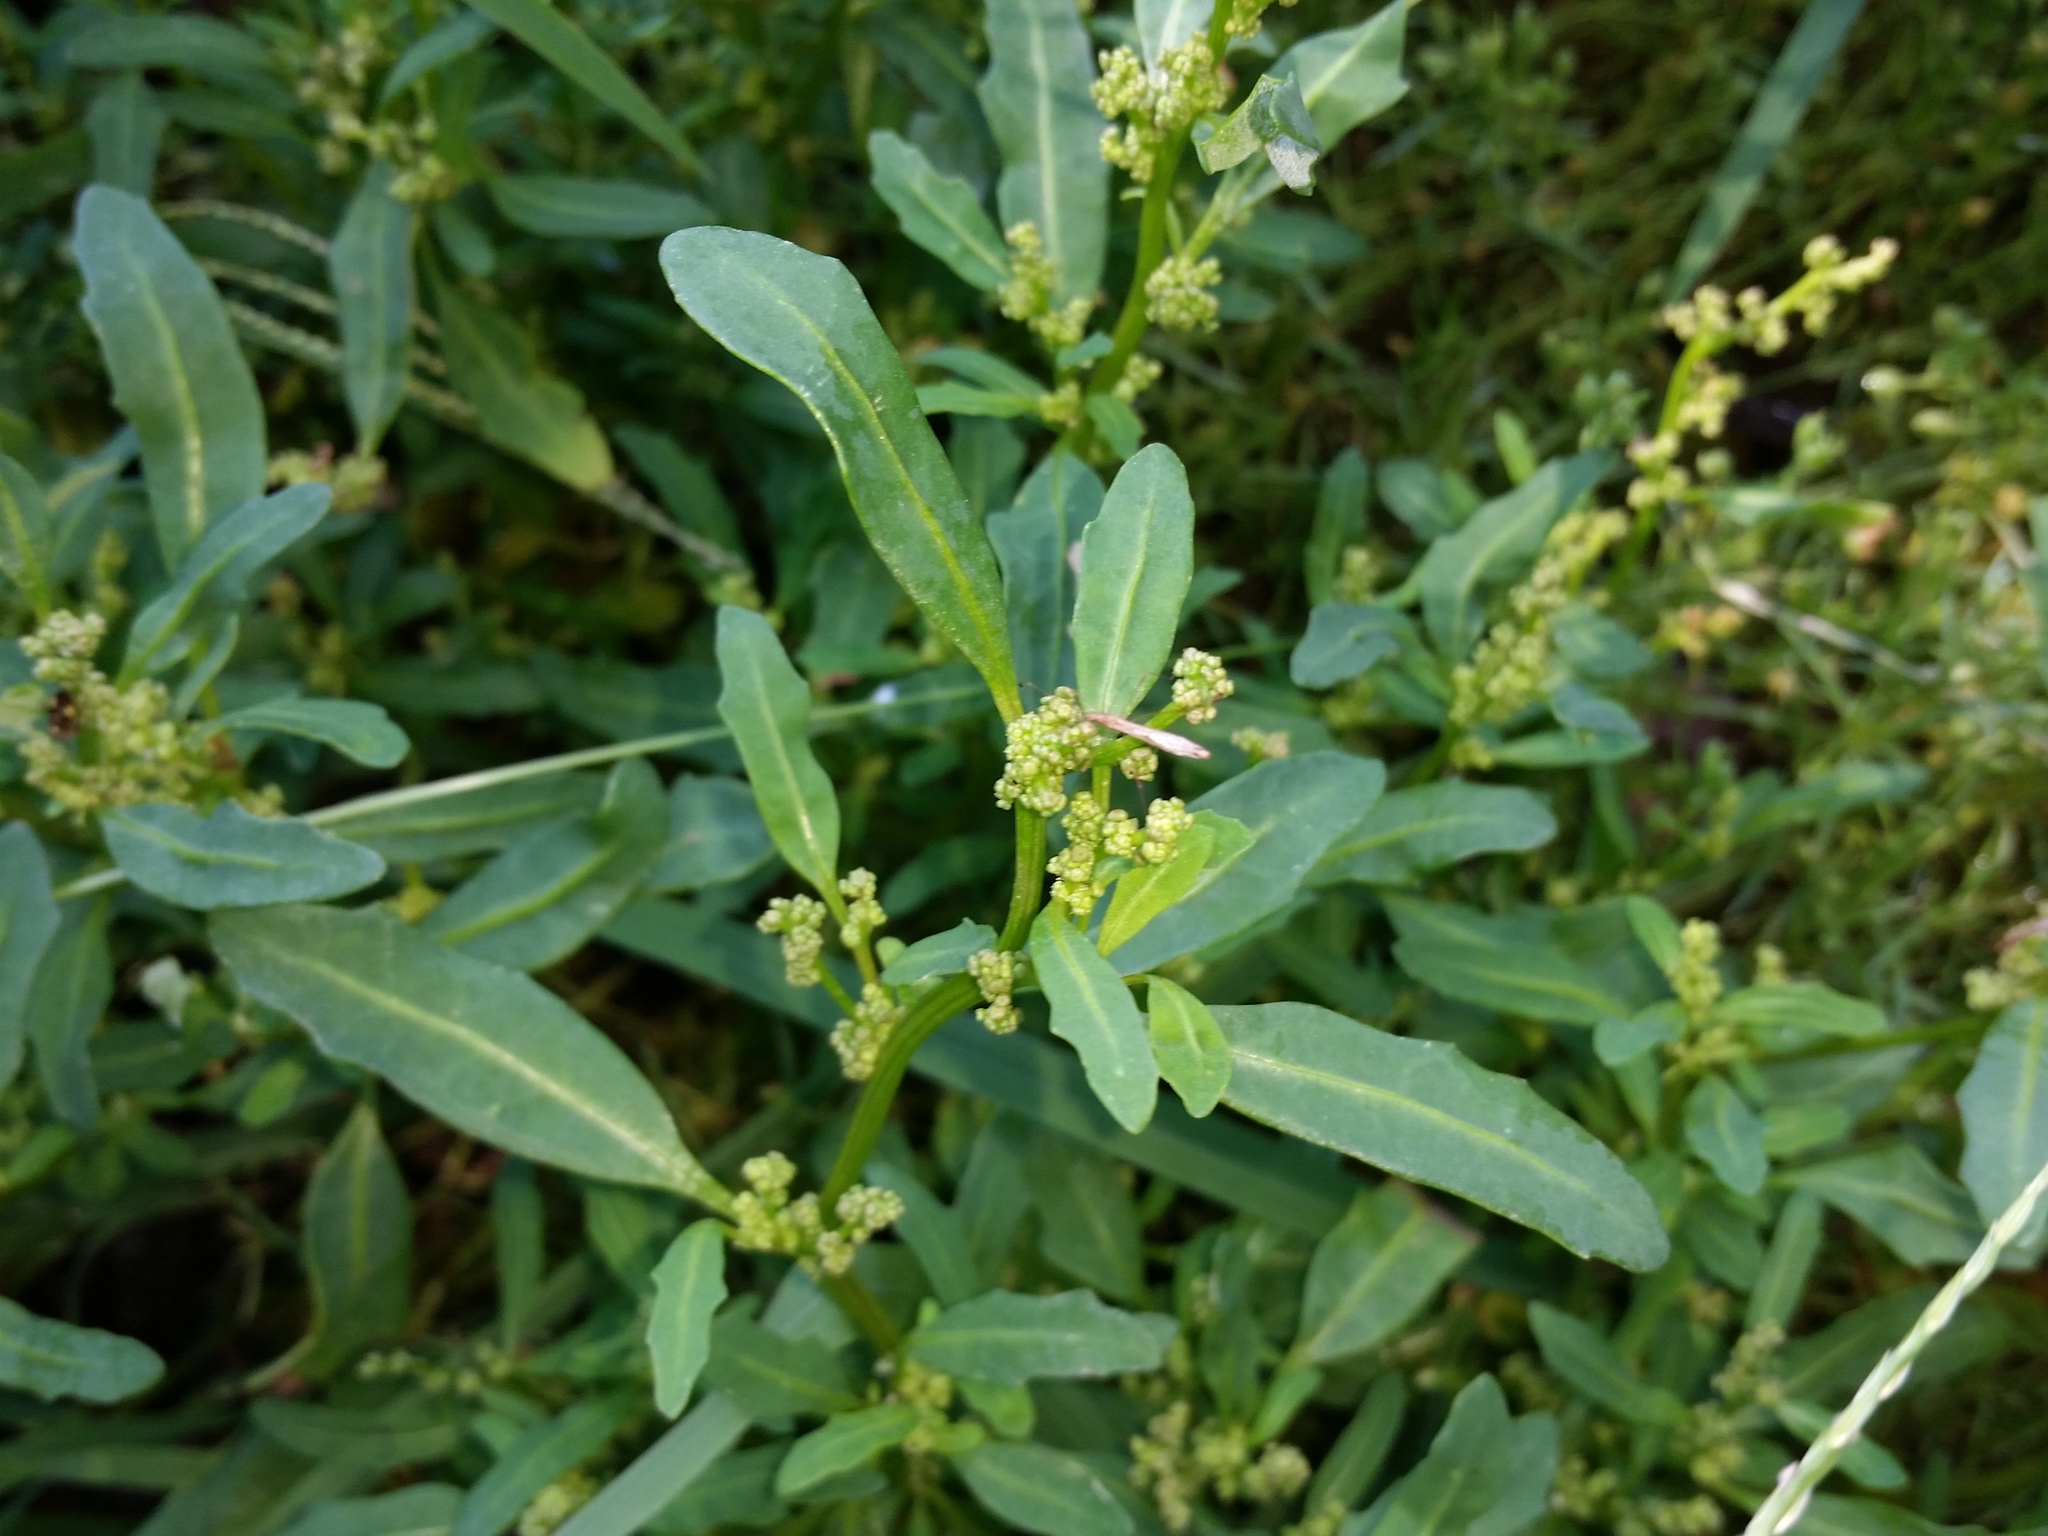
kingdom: Plantae
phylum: Tracheophyta
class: Magnoliopsida
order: Caryophyllales
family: Amaranthaceae
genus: Oxybasis
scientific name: Oxybasis glauca
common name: Glaucous goosefoot
